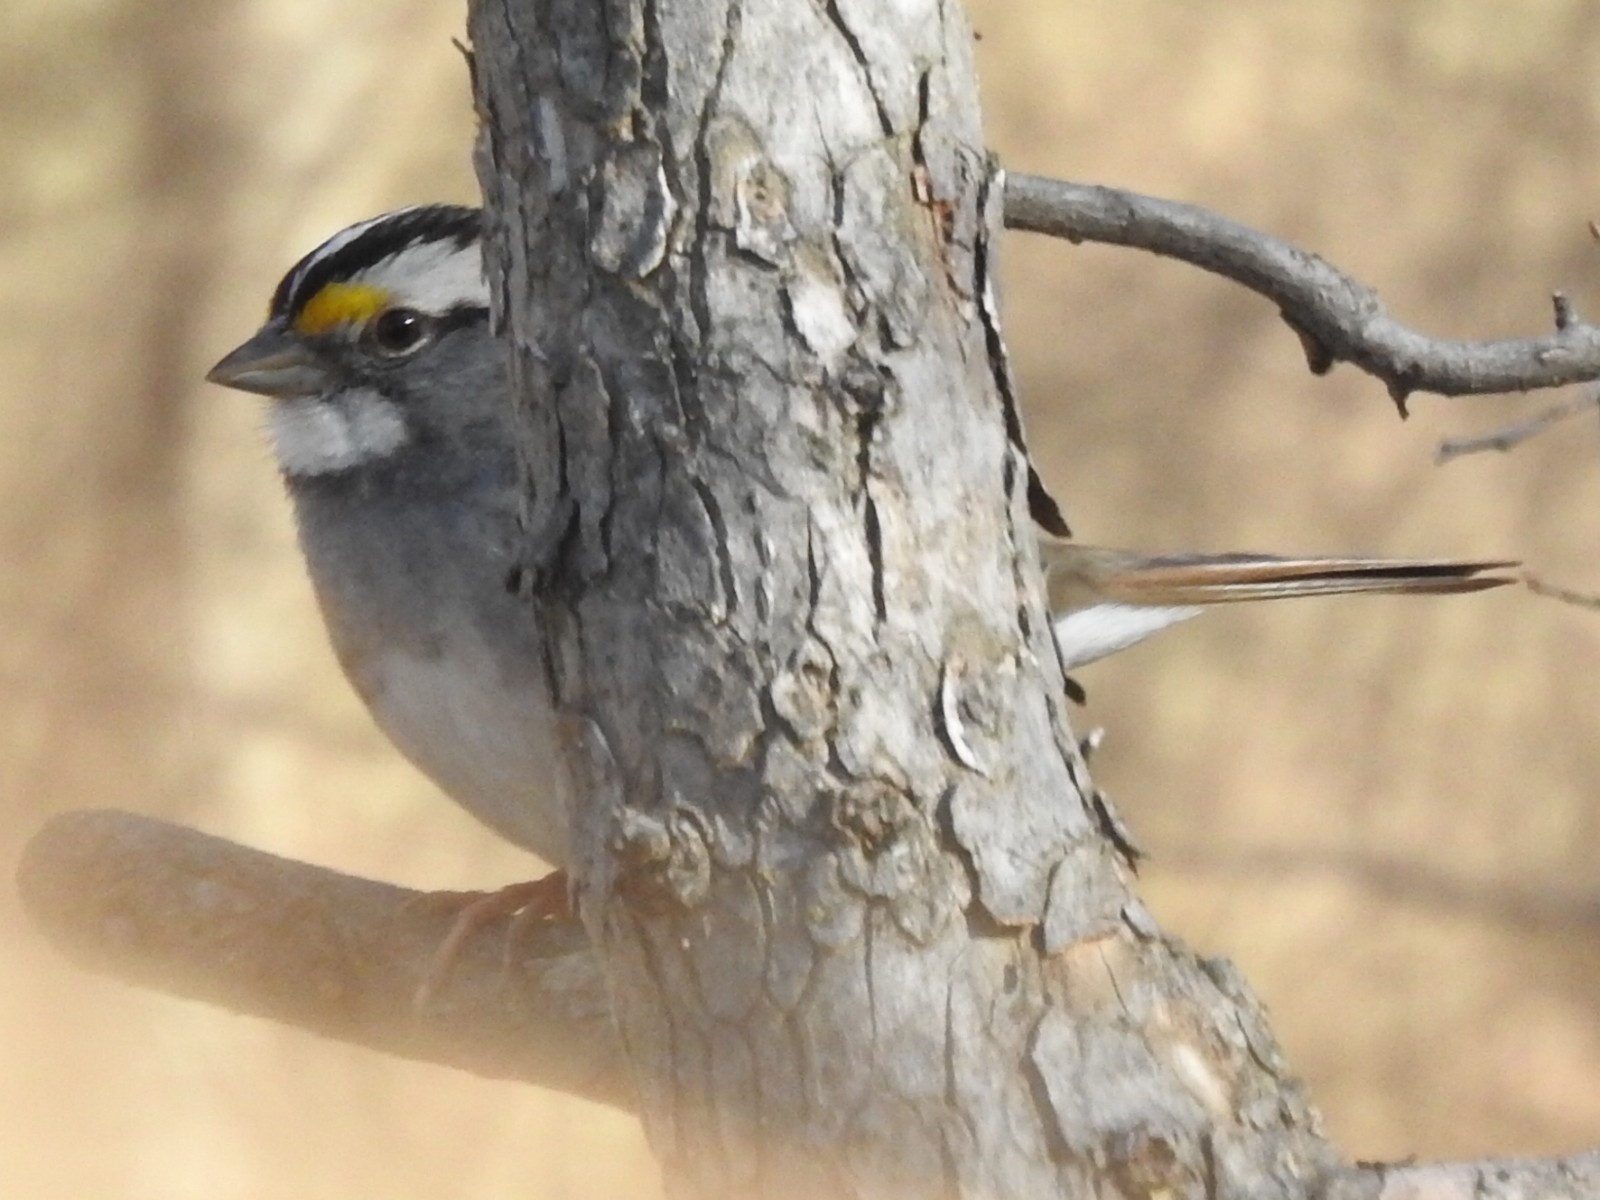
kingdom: Animalia
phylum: Chordata
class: Aves
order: Passeriformes
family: Passerellidae
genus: Zonotrichia
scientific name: Zonotrichia albicollis
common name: White-throated sparrow
